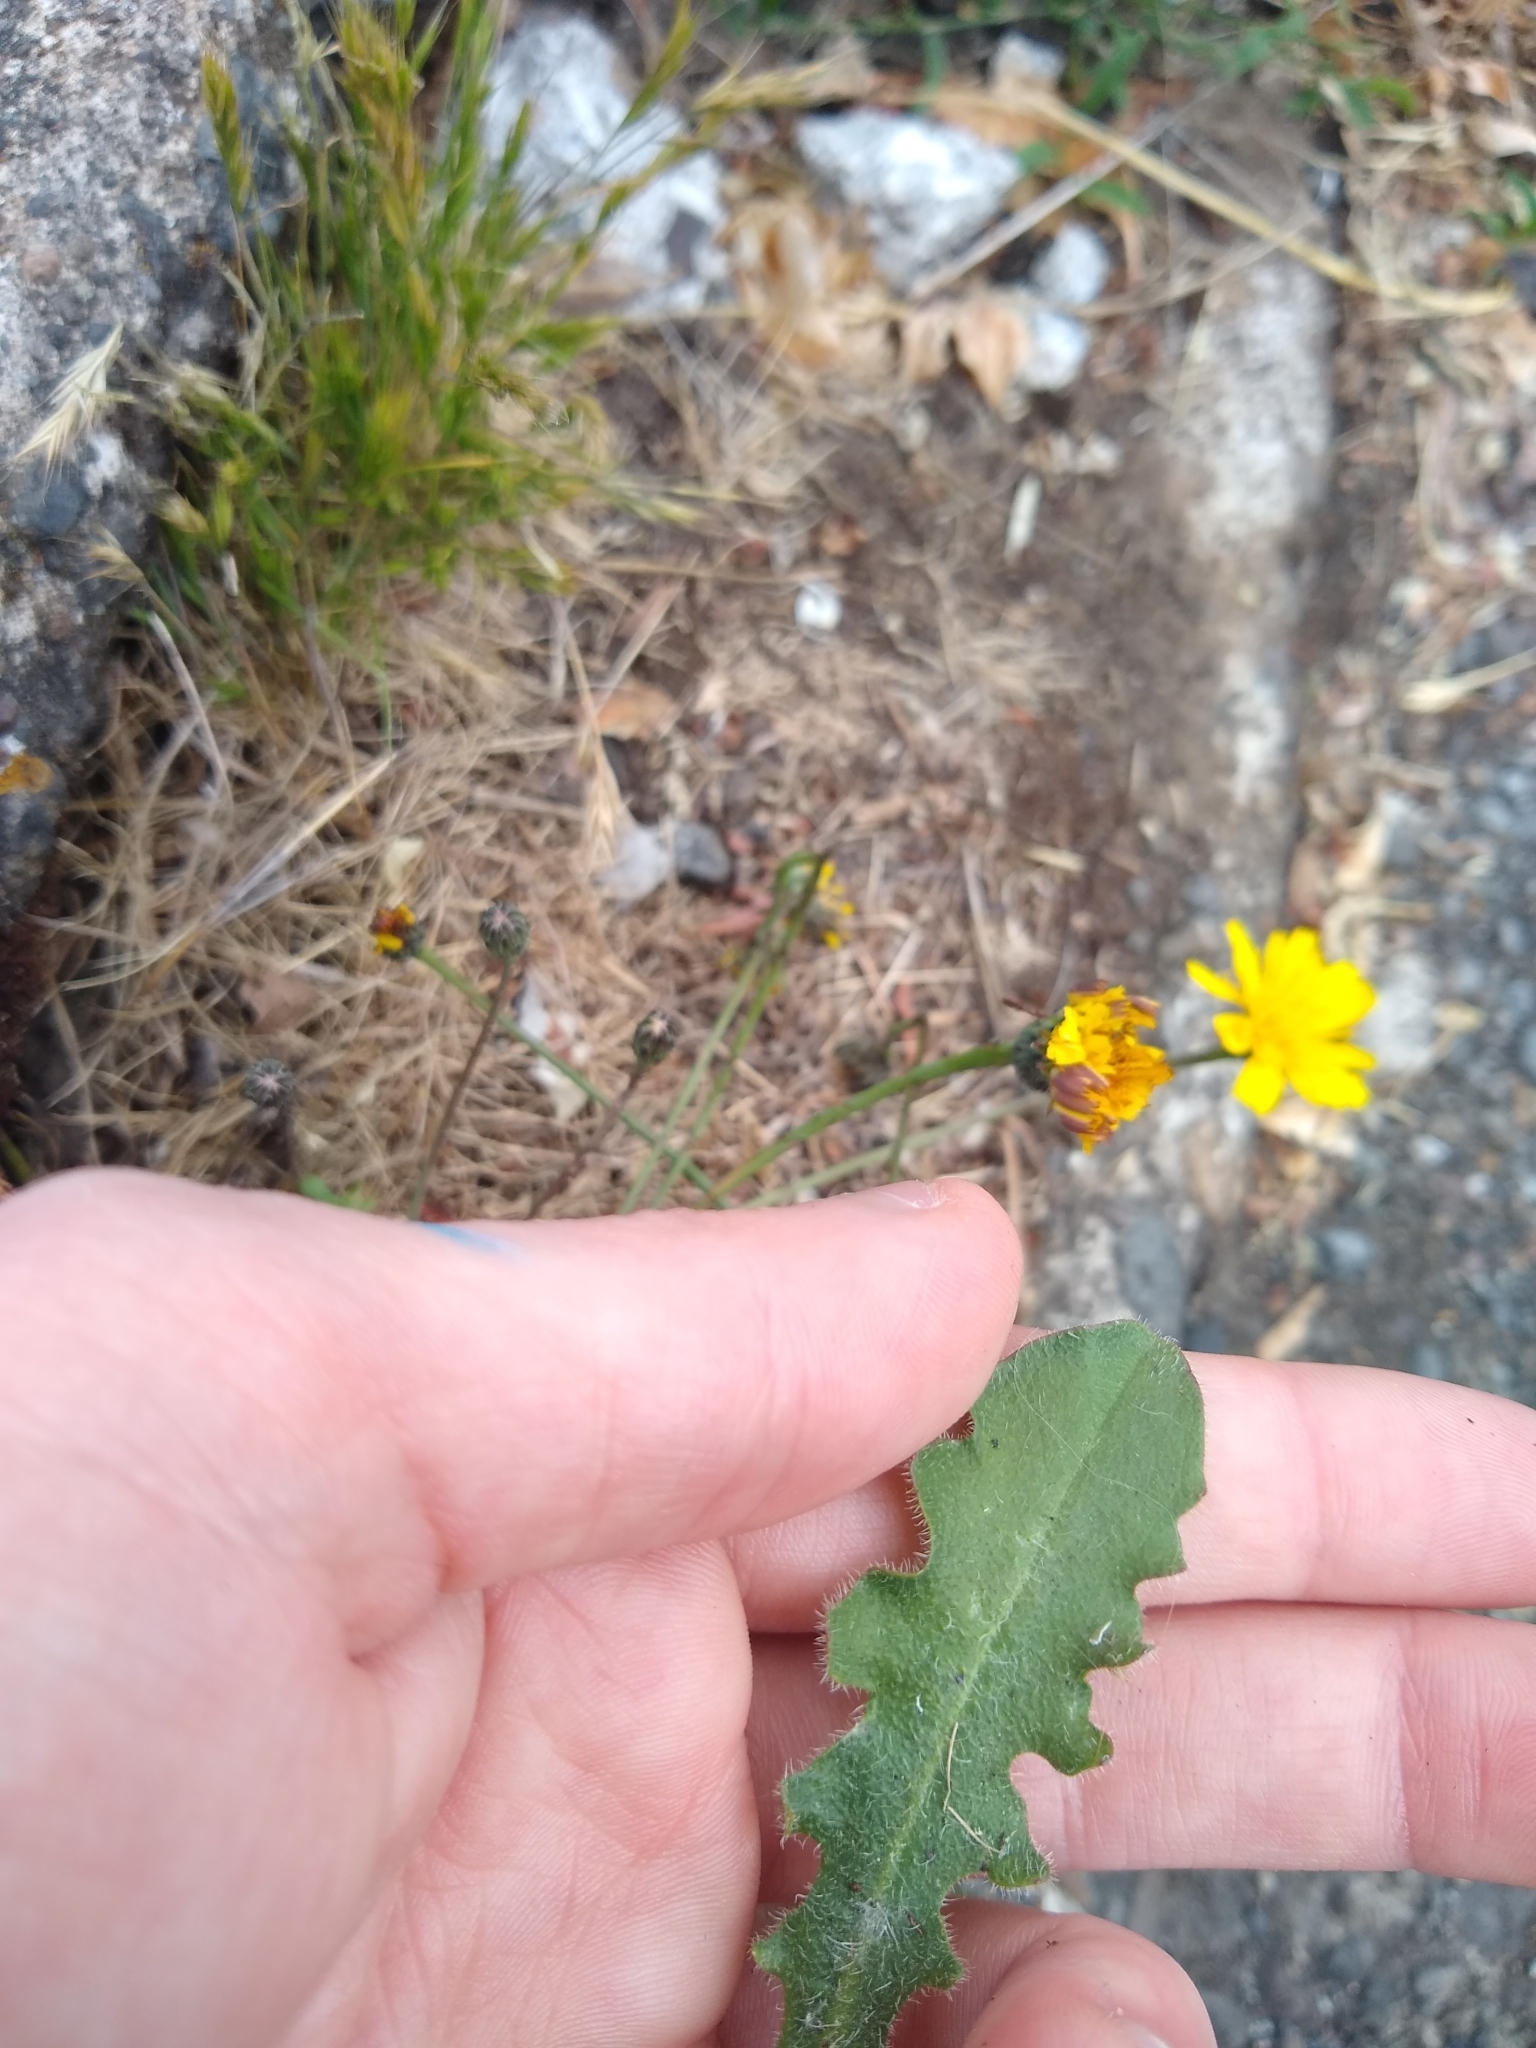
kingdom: Plantae
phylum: Tracheophyta
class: Magnoliopsida
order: Asterales
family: Asteraceae
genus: Hypochaeris
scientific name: Hypochaeris radicata
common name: Flatweed
